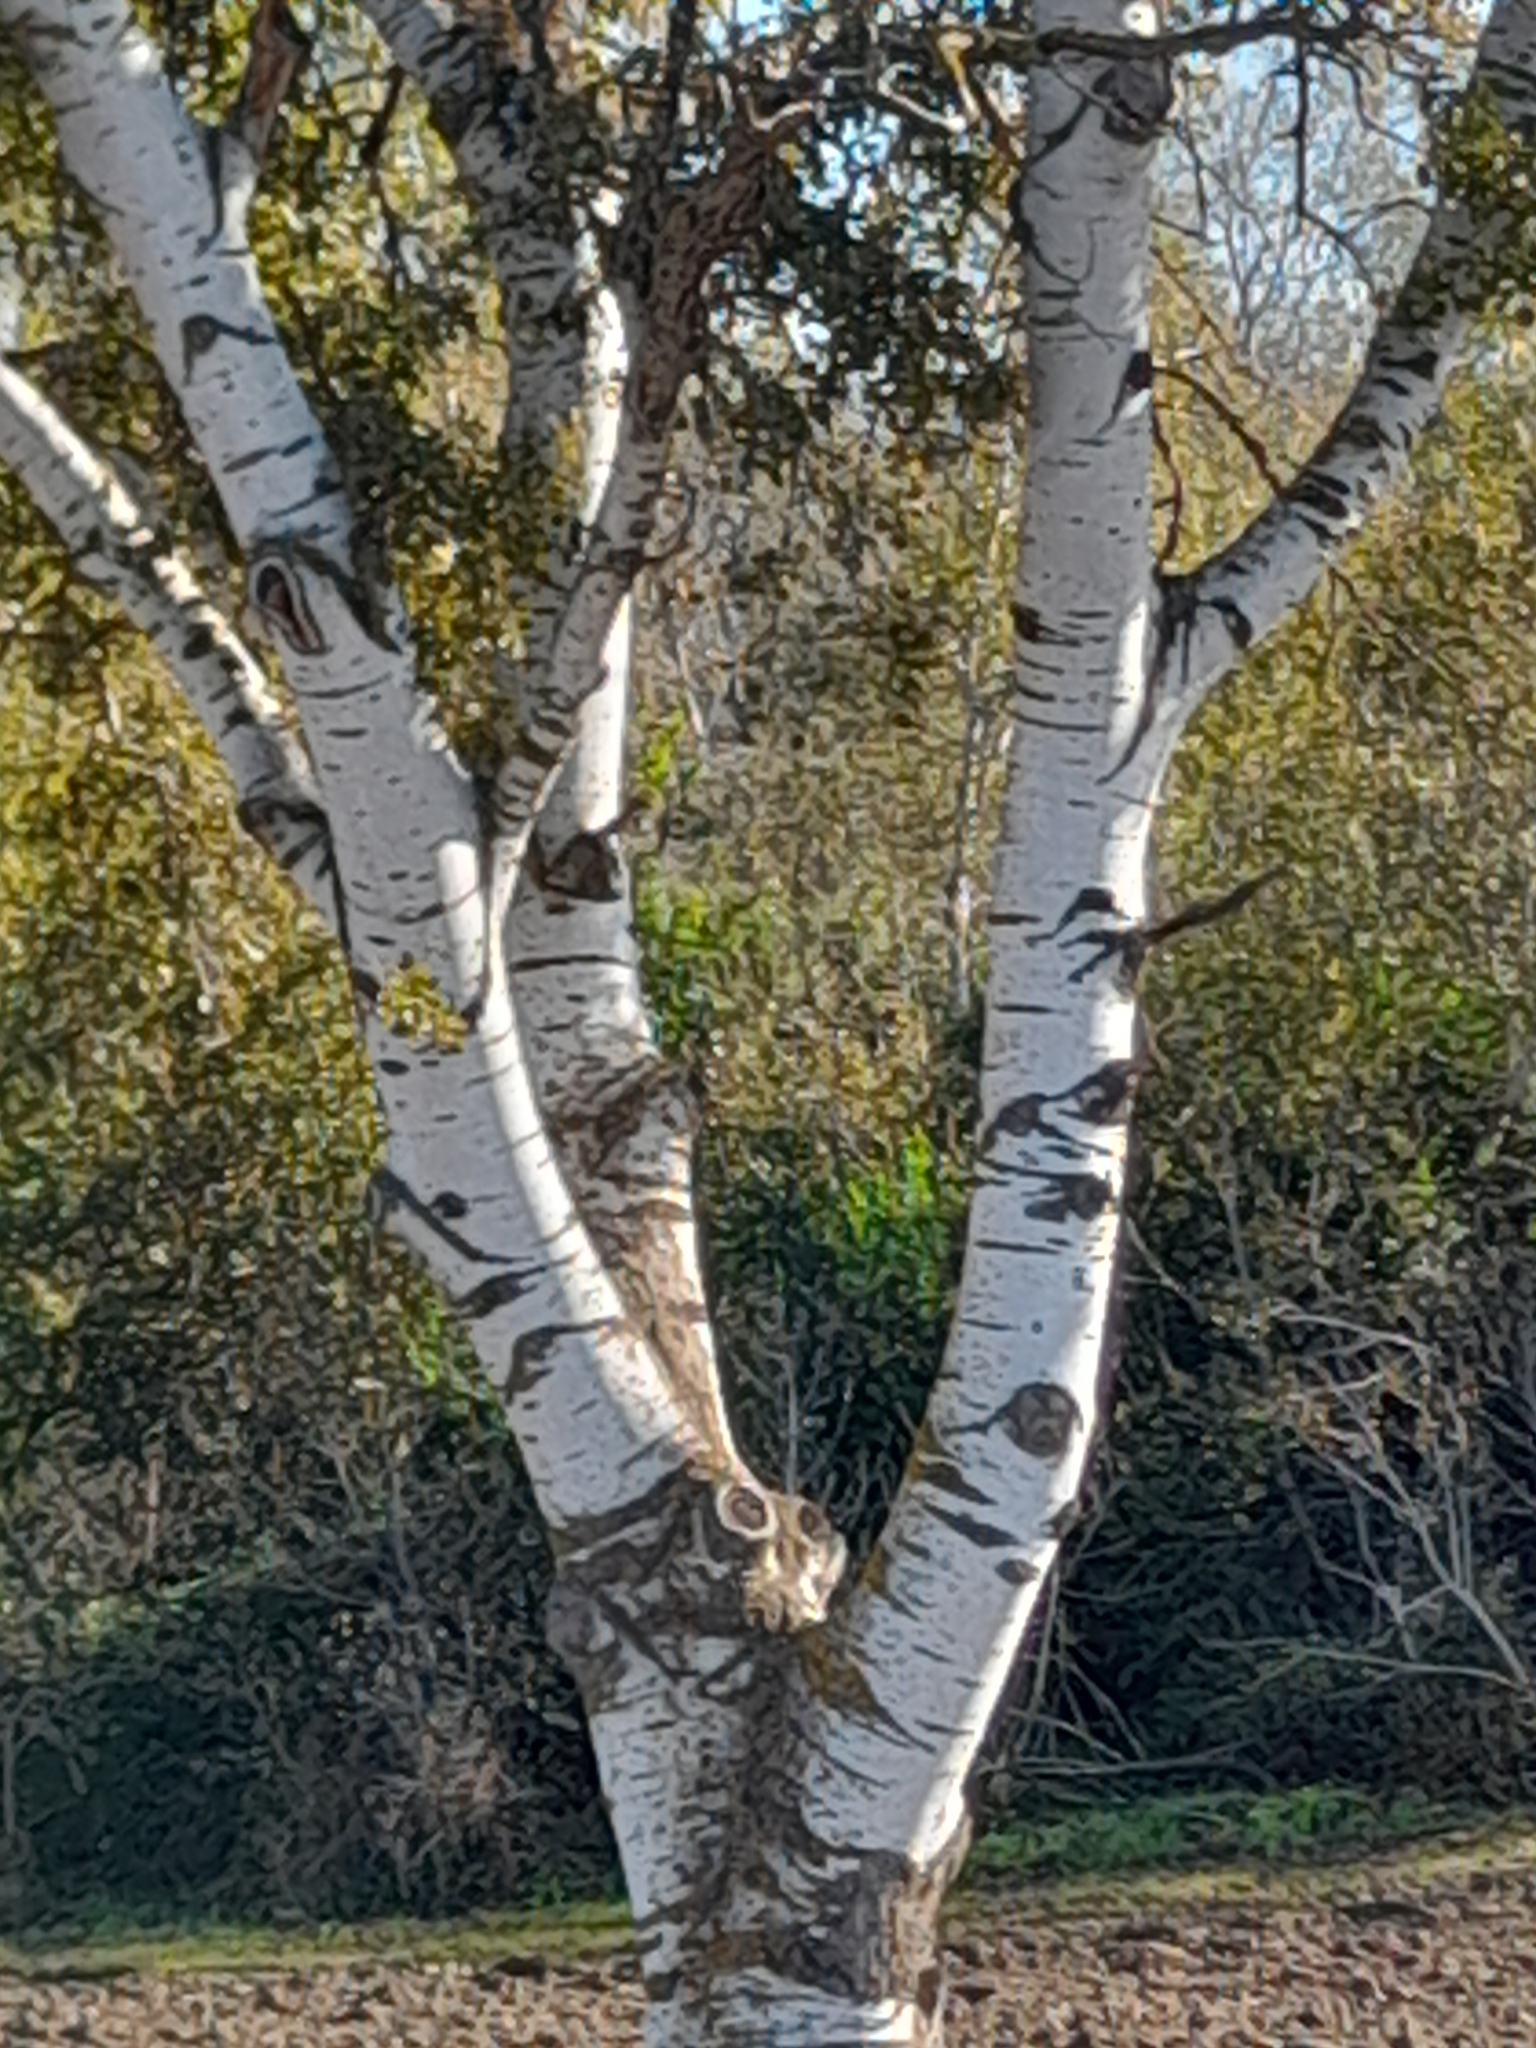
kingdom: Plantae
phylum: Tracheophyta
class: Magnoliopsida
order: Malpighiales
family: Salicaceae
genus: Populus
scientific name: Populus alba
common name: White poplar
